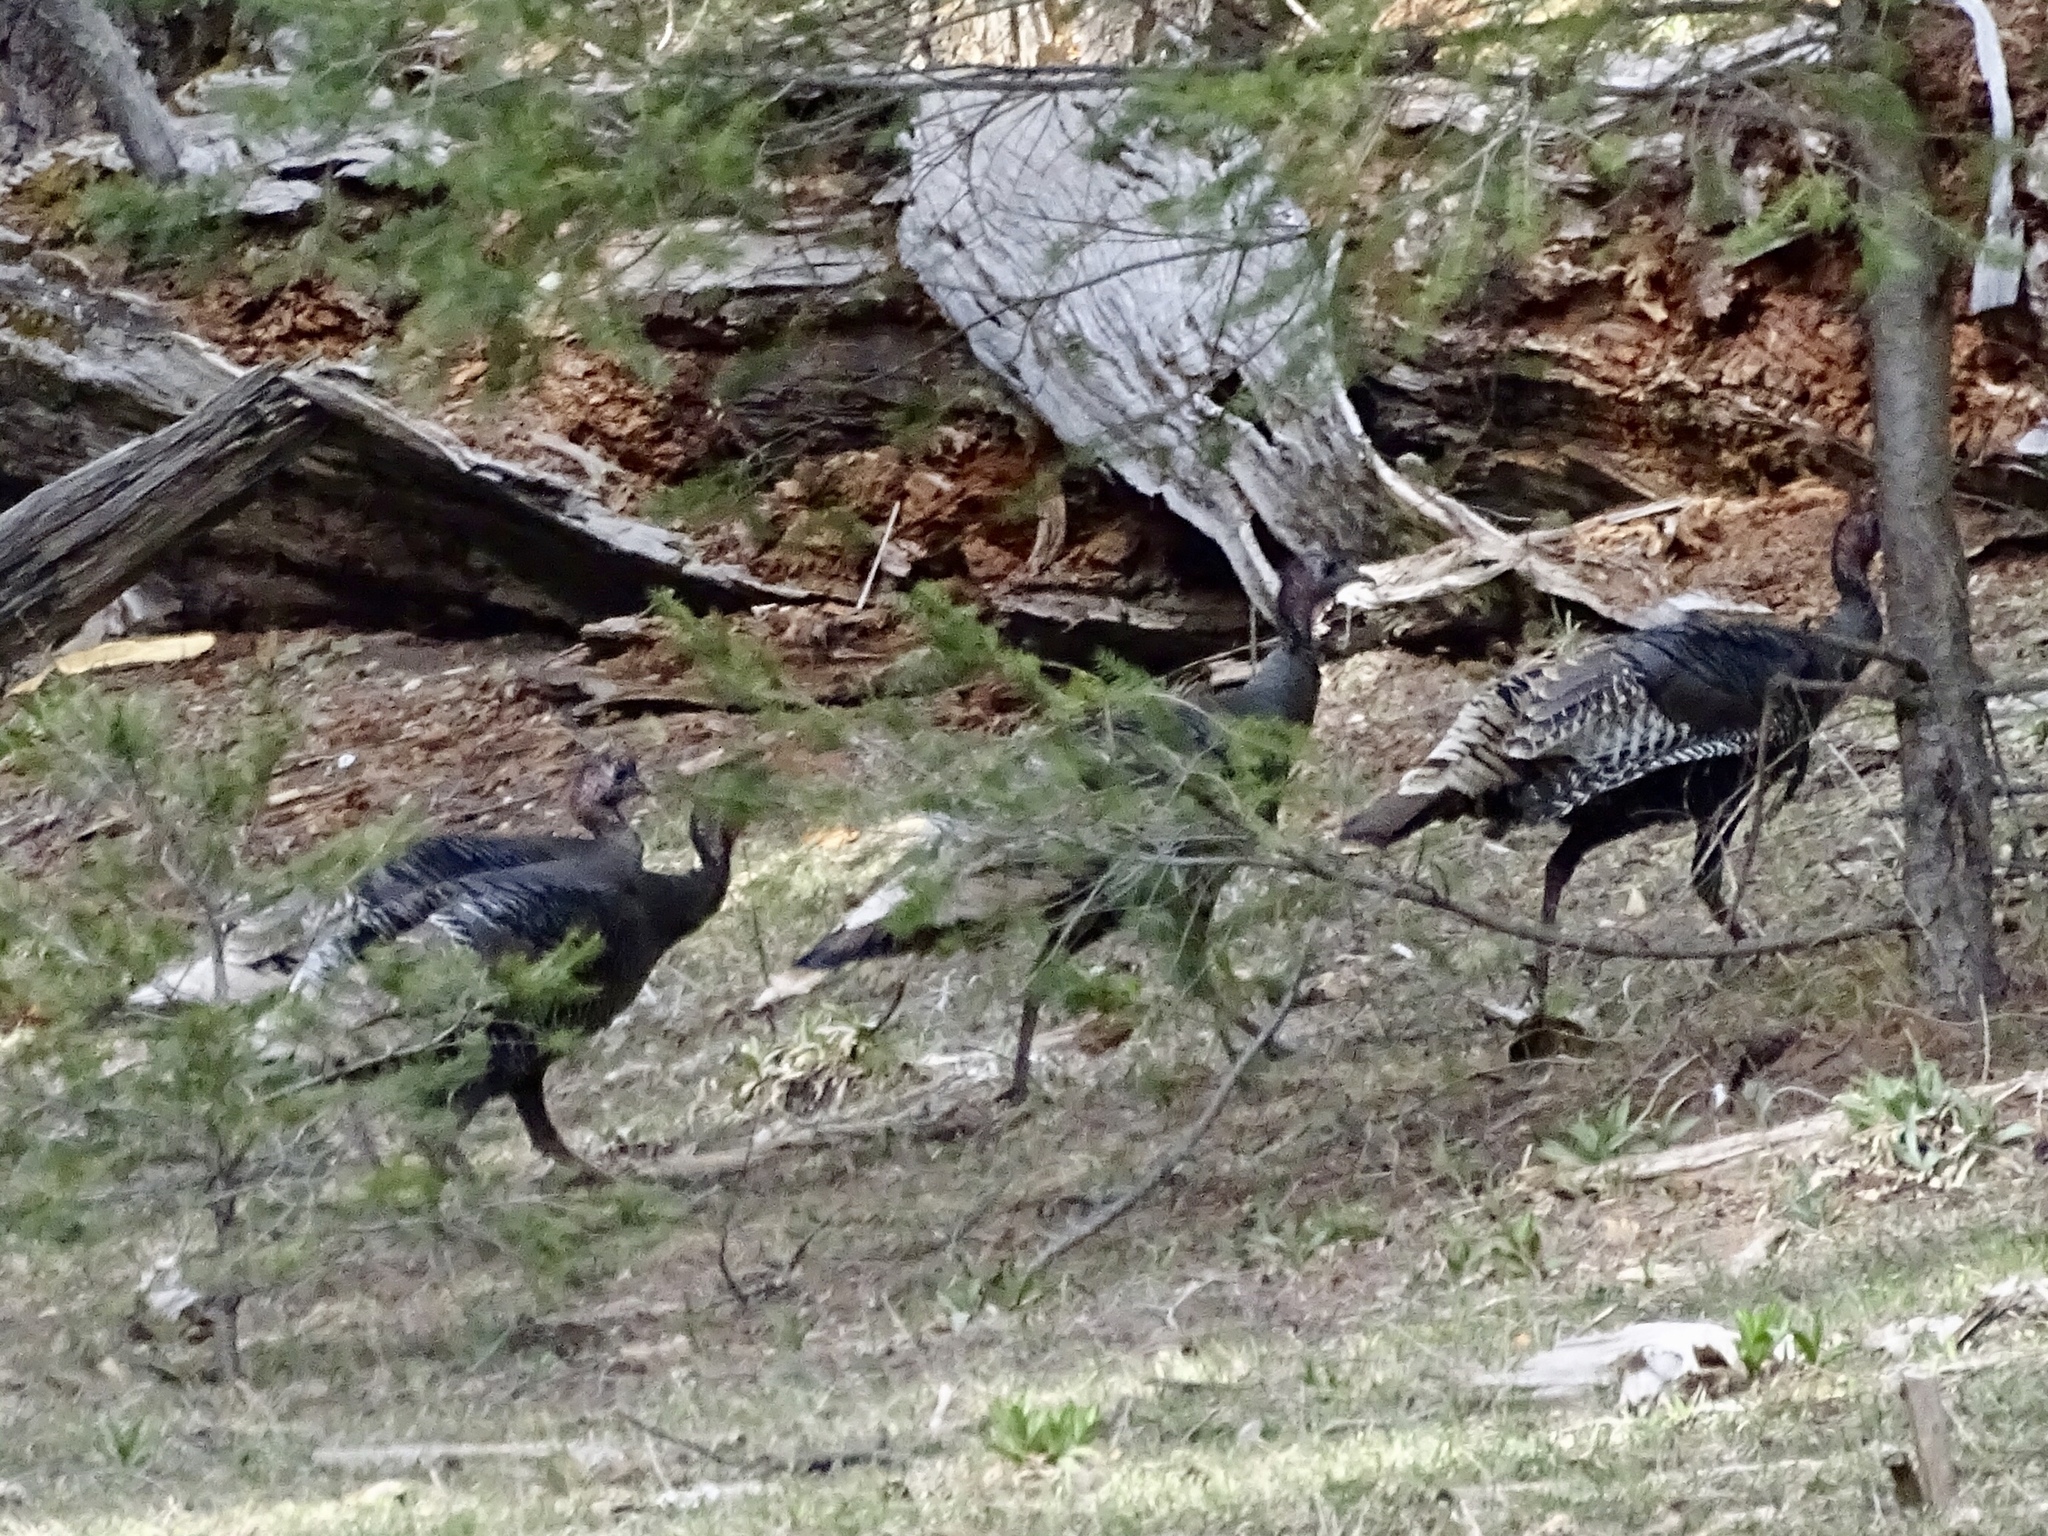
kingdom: Animalia
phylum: Chordata
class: Aves
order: Galliformes
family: Phasianidae
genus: Meleagris
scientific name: Meleagris gallopavo
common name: Wild turkey
